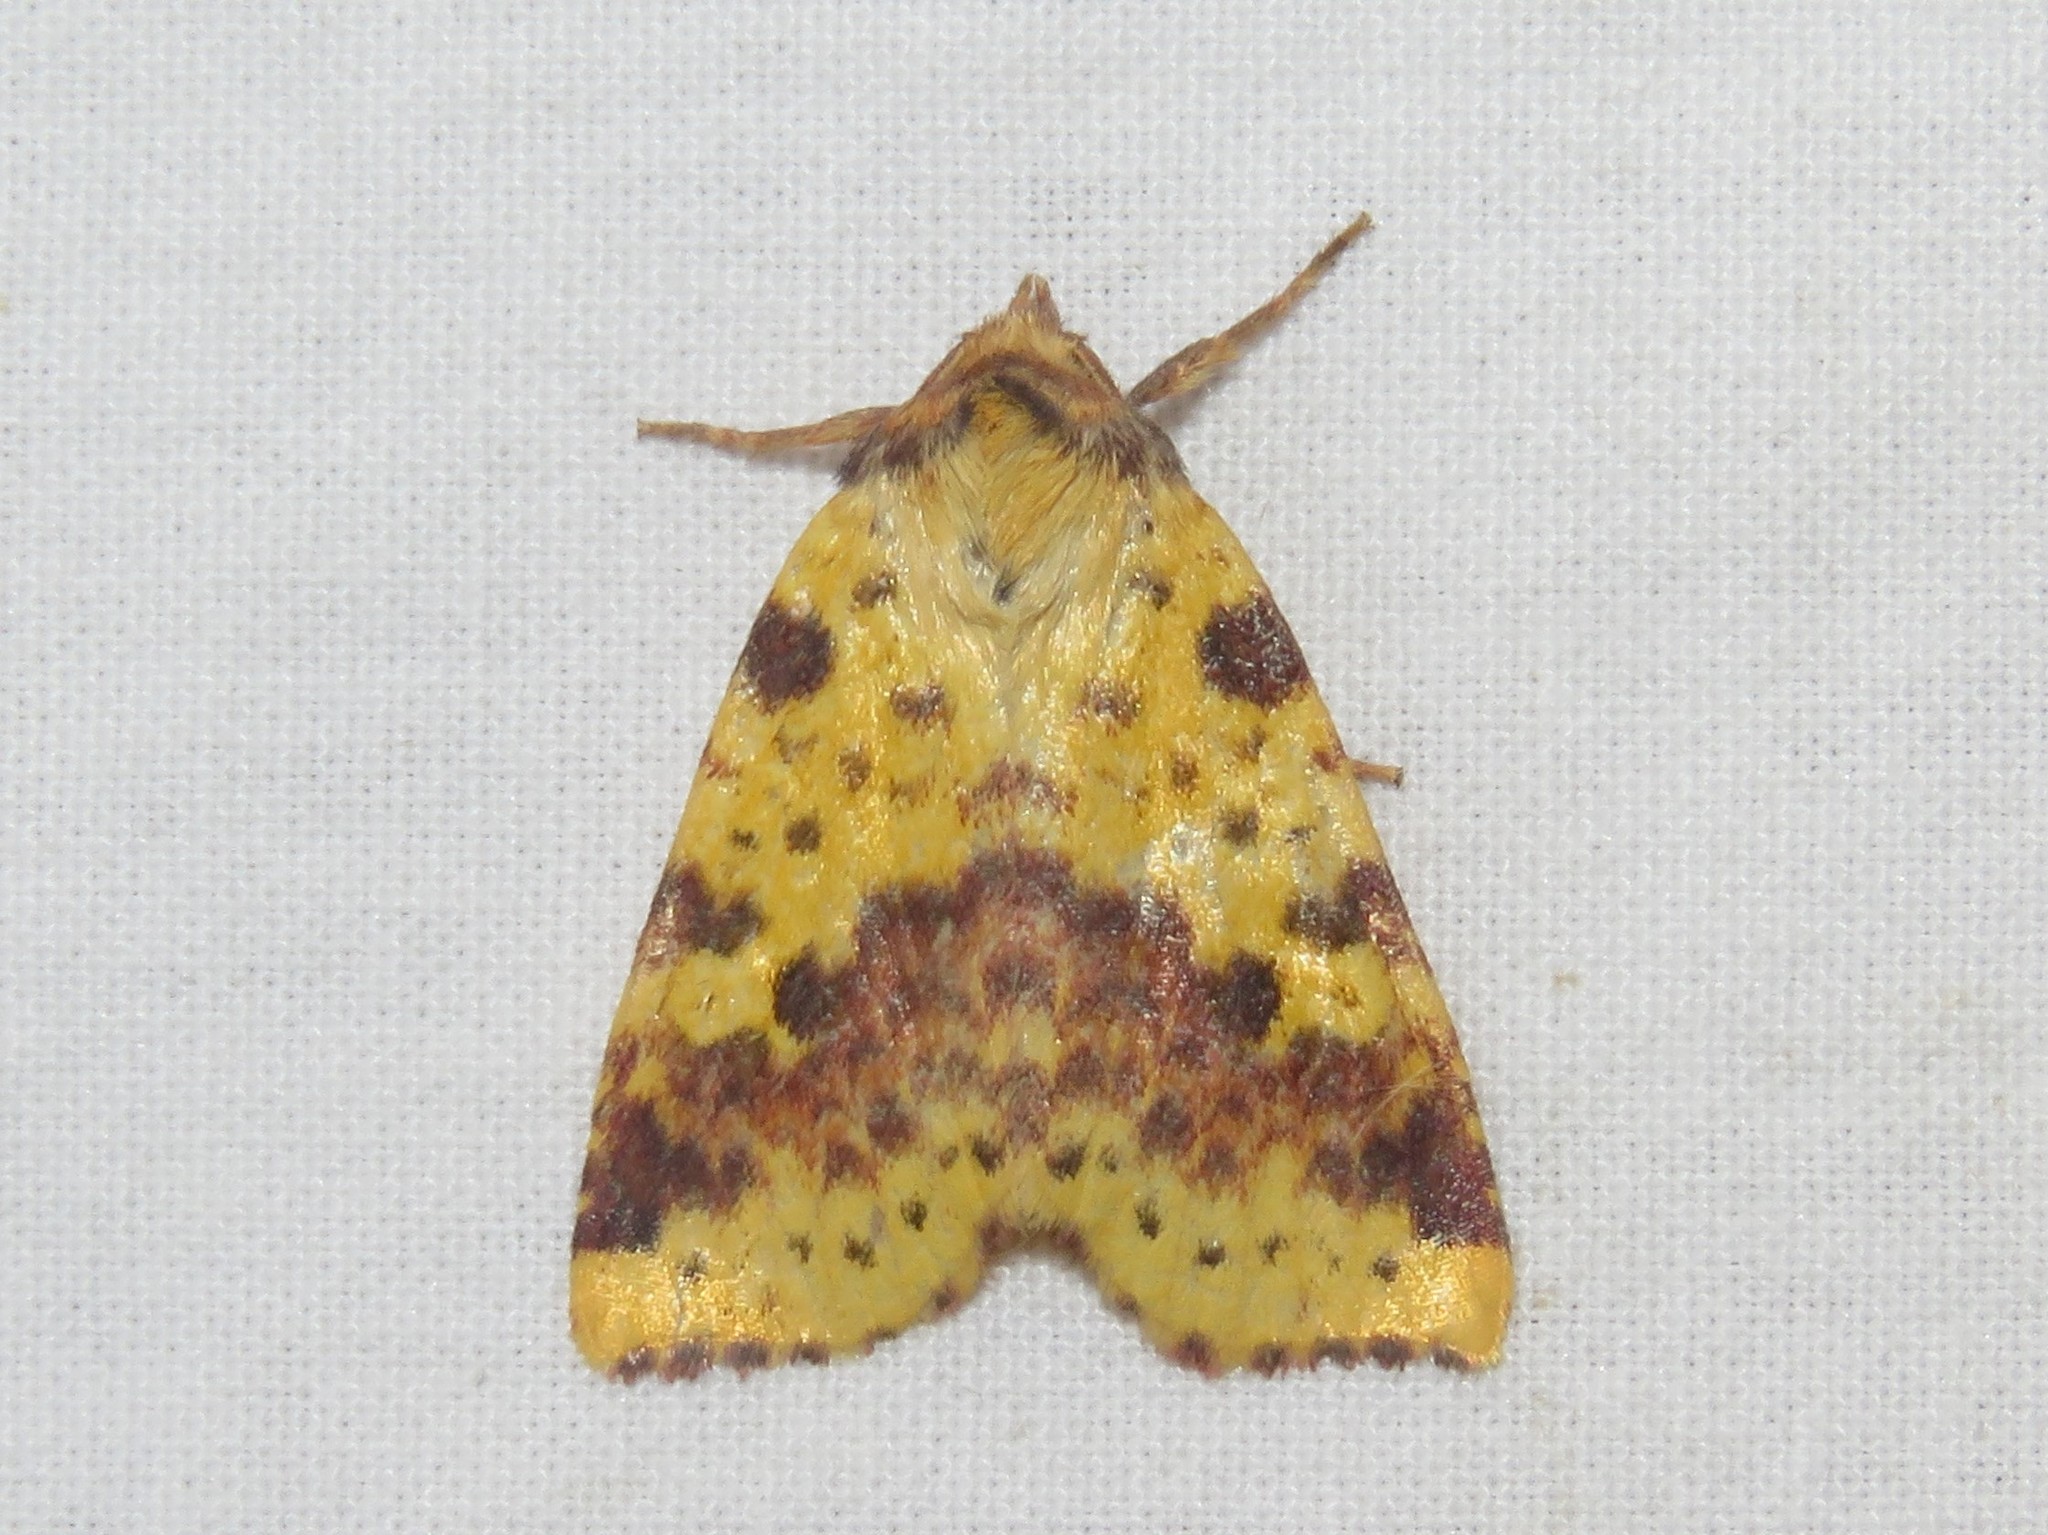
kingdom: Animalia
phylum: Arthropoda
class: Insecta
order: Lepidoptera
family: Noctuidae
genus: Xanthia
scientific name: Xanthia tatago
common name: Pink-banded sallow
